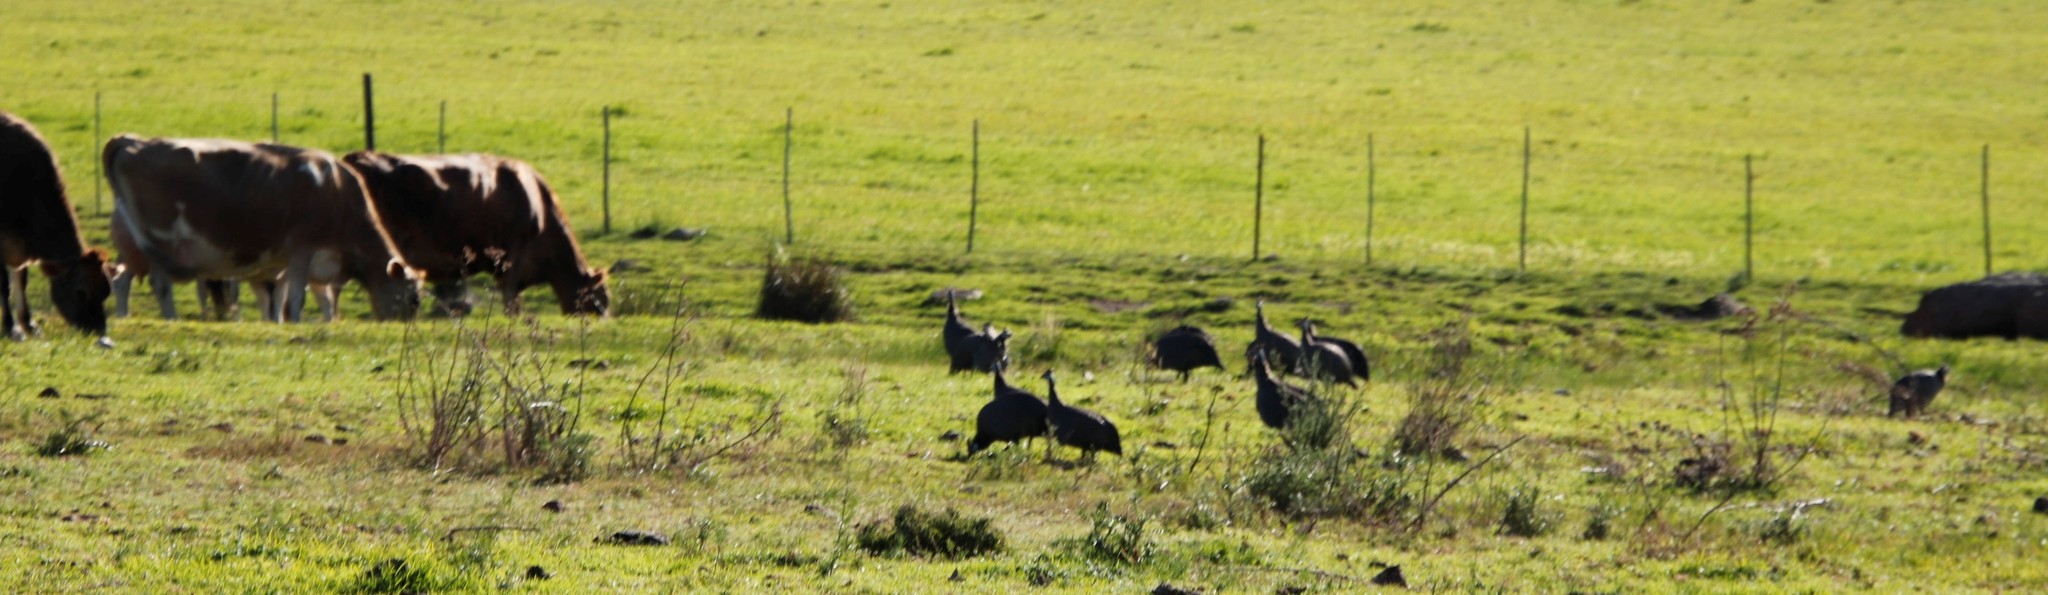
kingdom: Animalia
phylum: Chordata
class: Aves
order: Galliformes
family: Numididae
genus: Numida
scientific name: Numida meleagris
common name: Helmeted guineafowl
